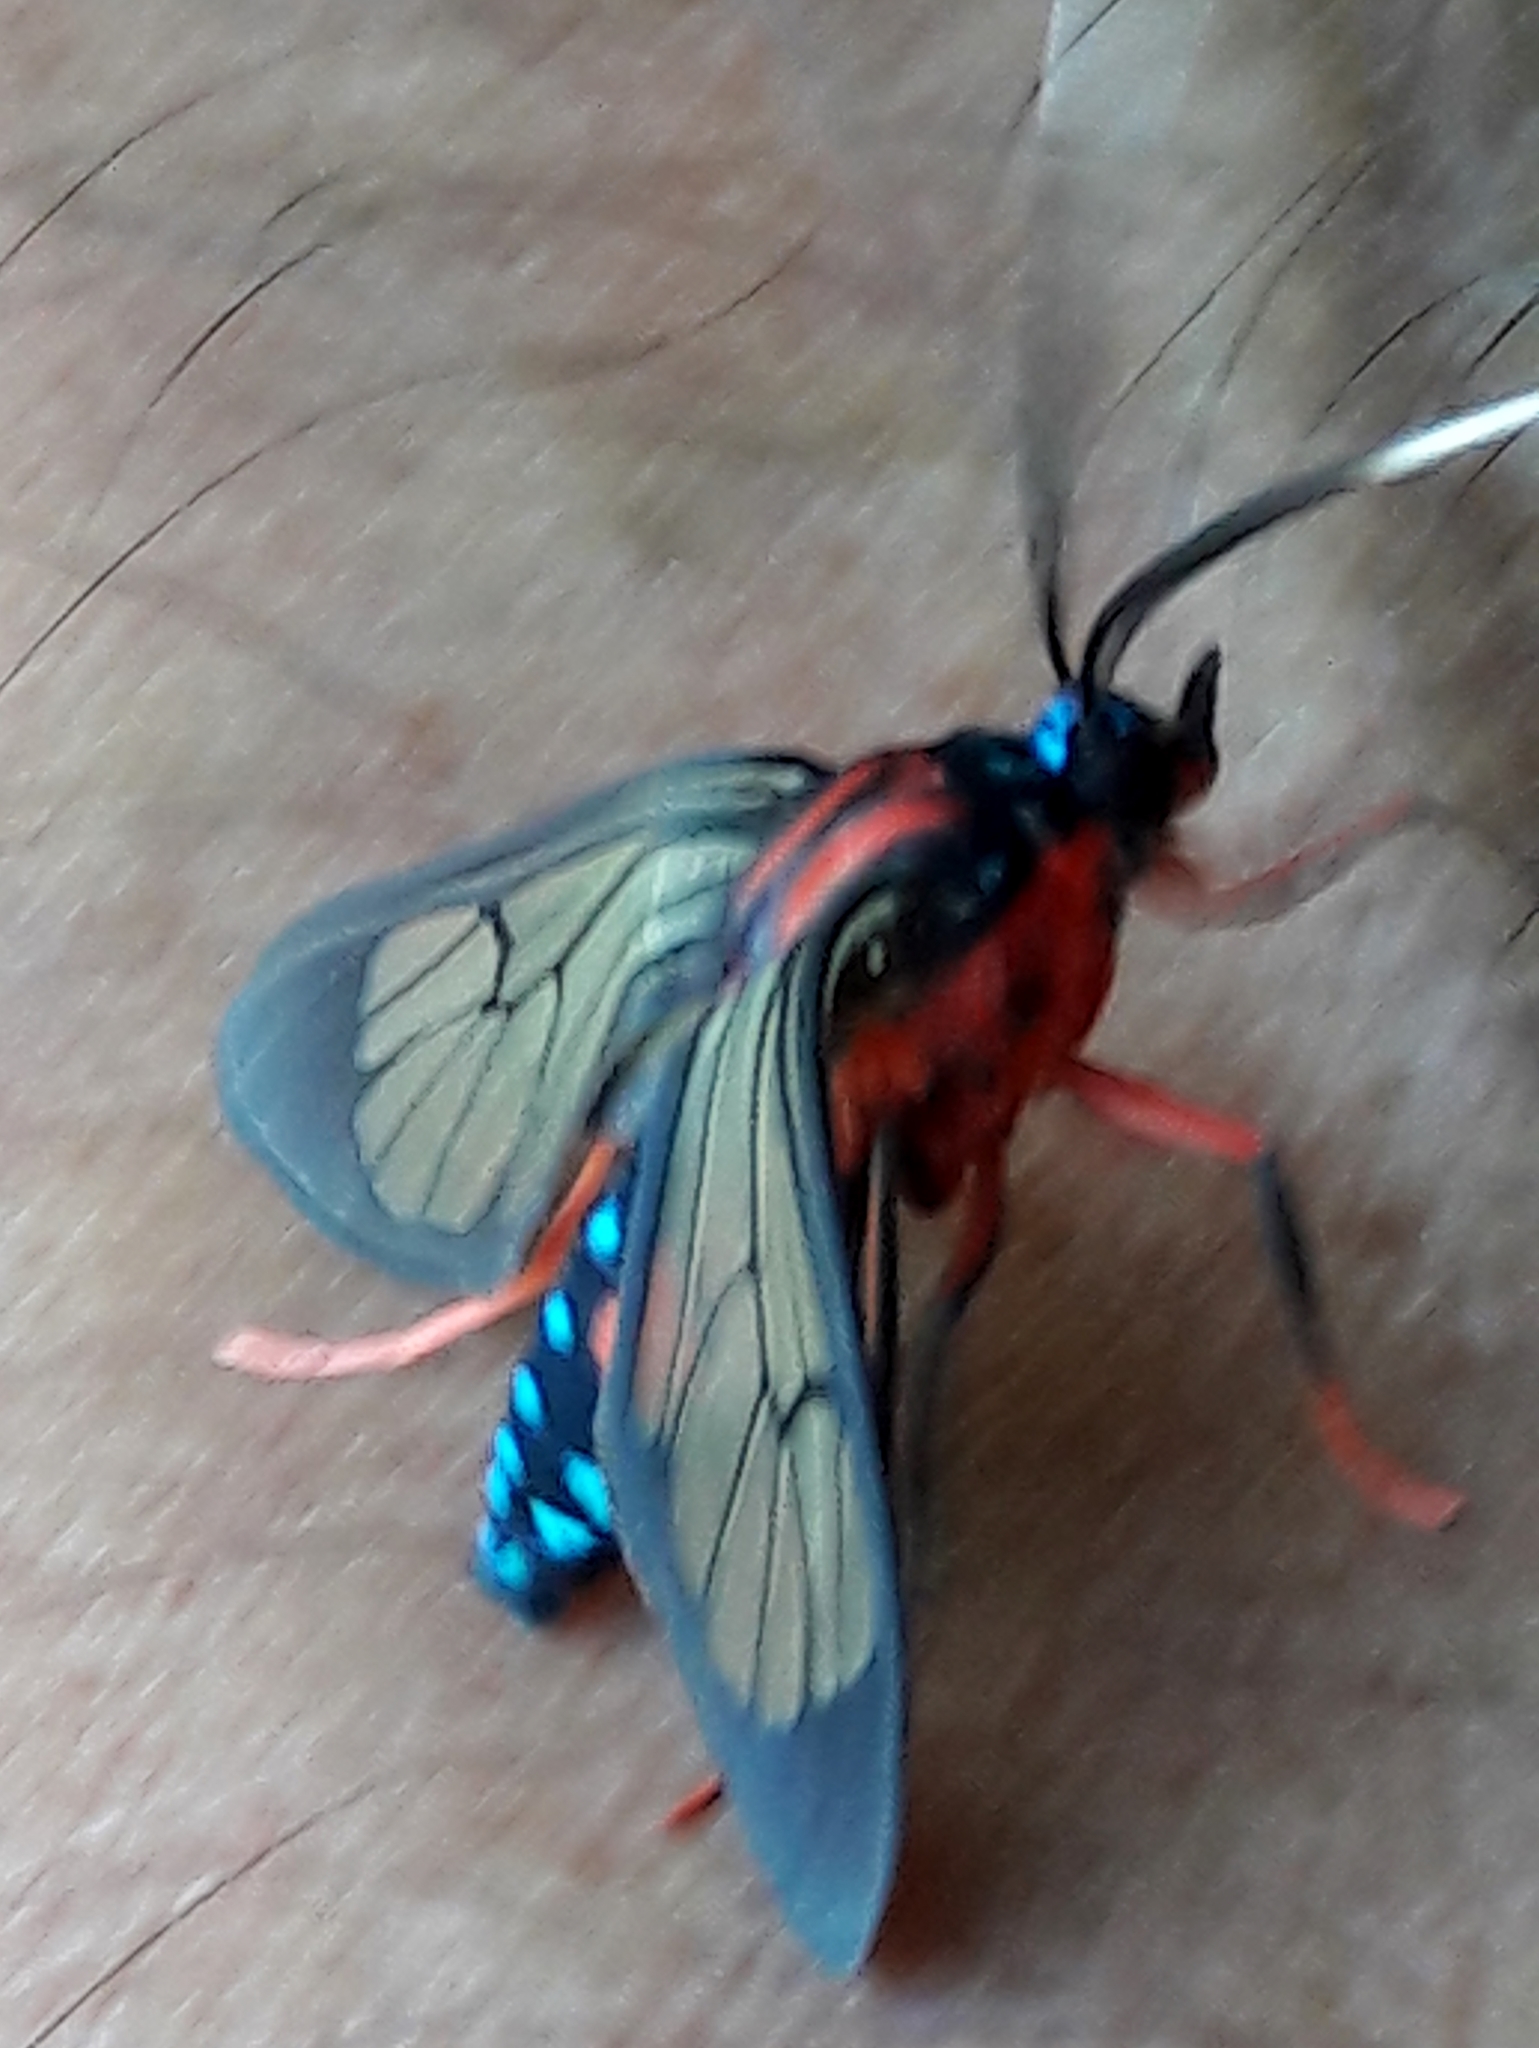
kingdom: Animalia
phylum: Arthropoda
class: Insecta
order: Lepidoptera
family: Erebidae
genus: Cosmosoma
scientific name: Cosmosoma auge
